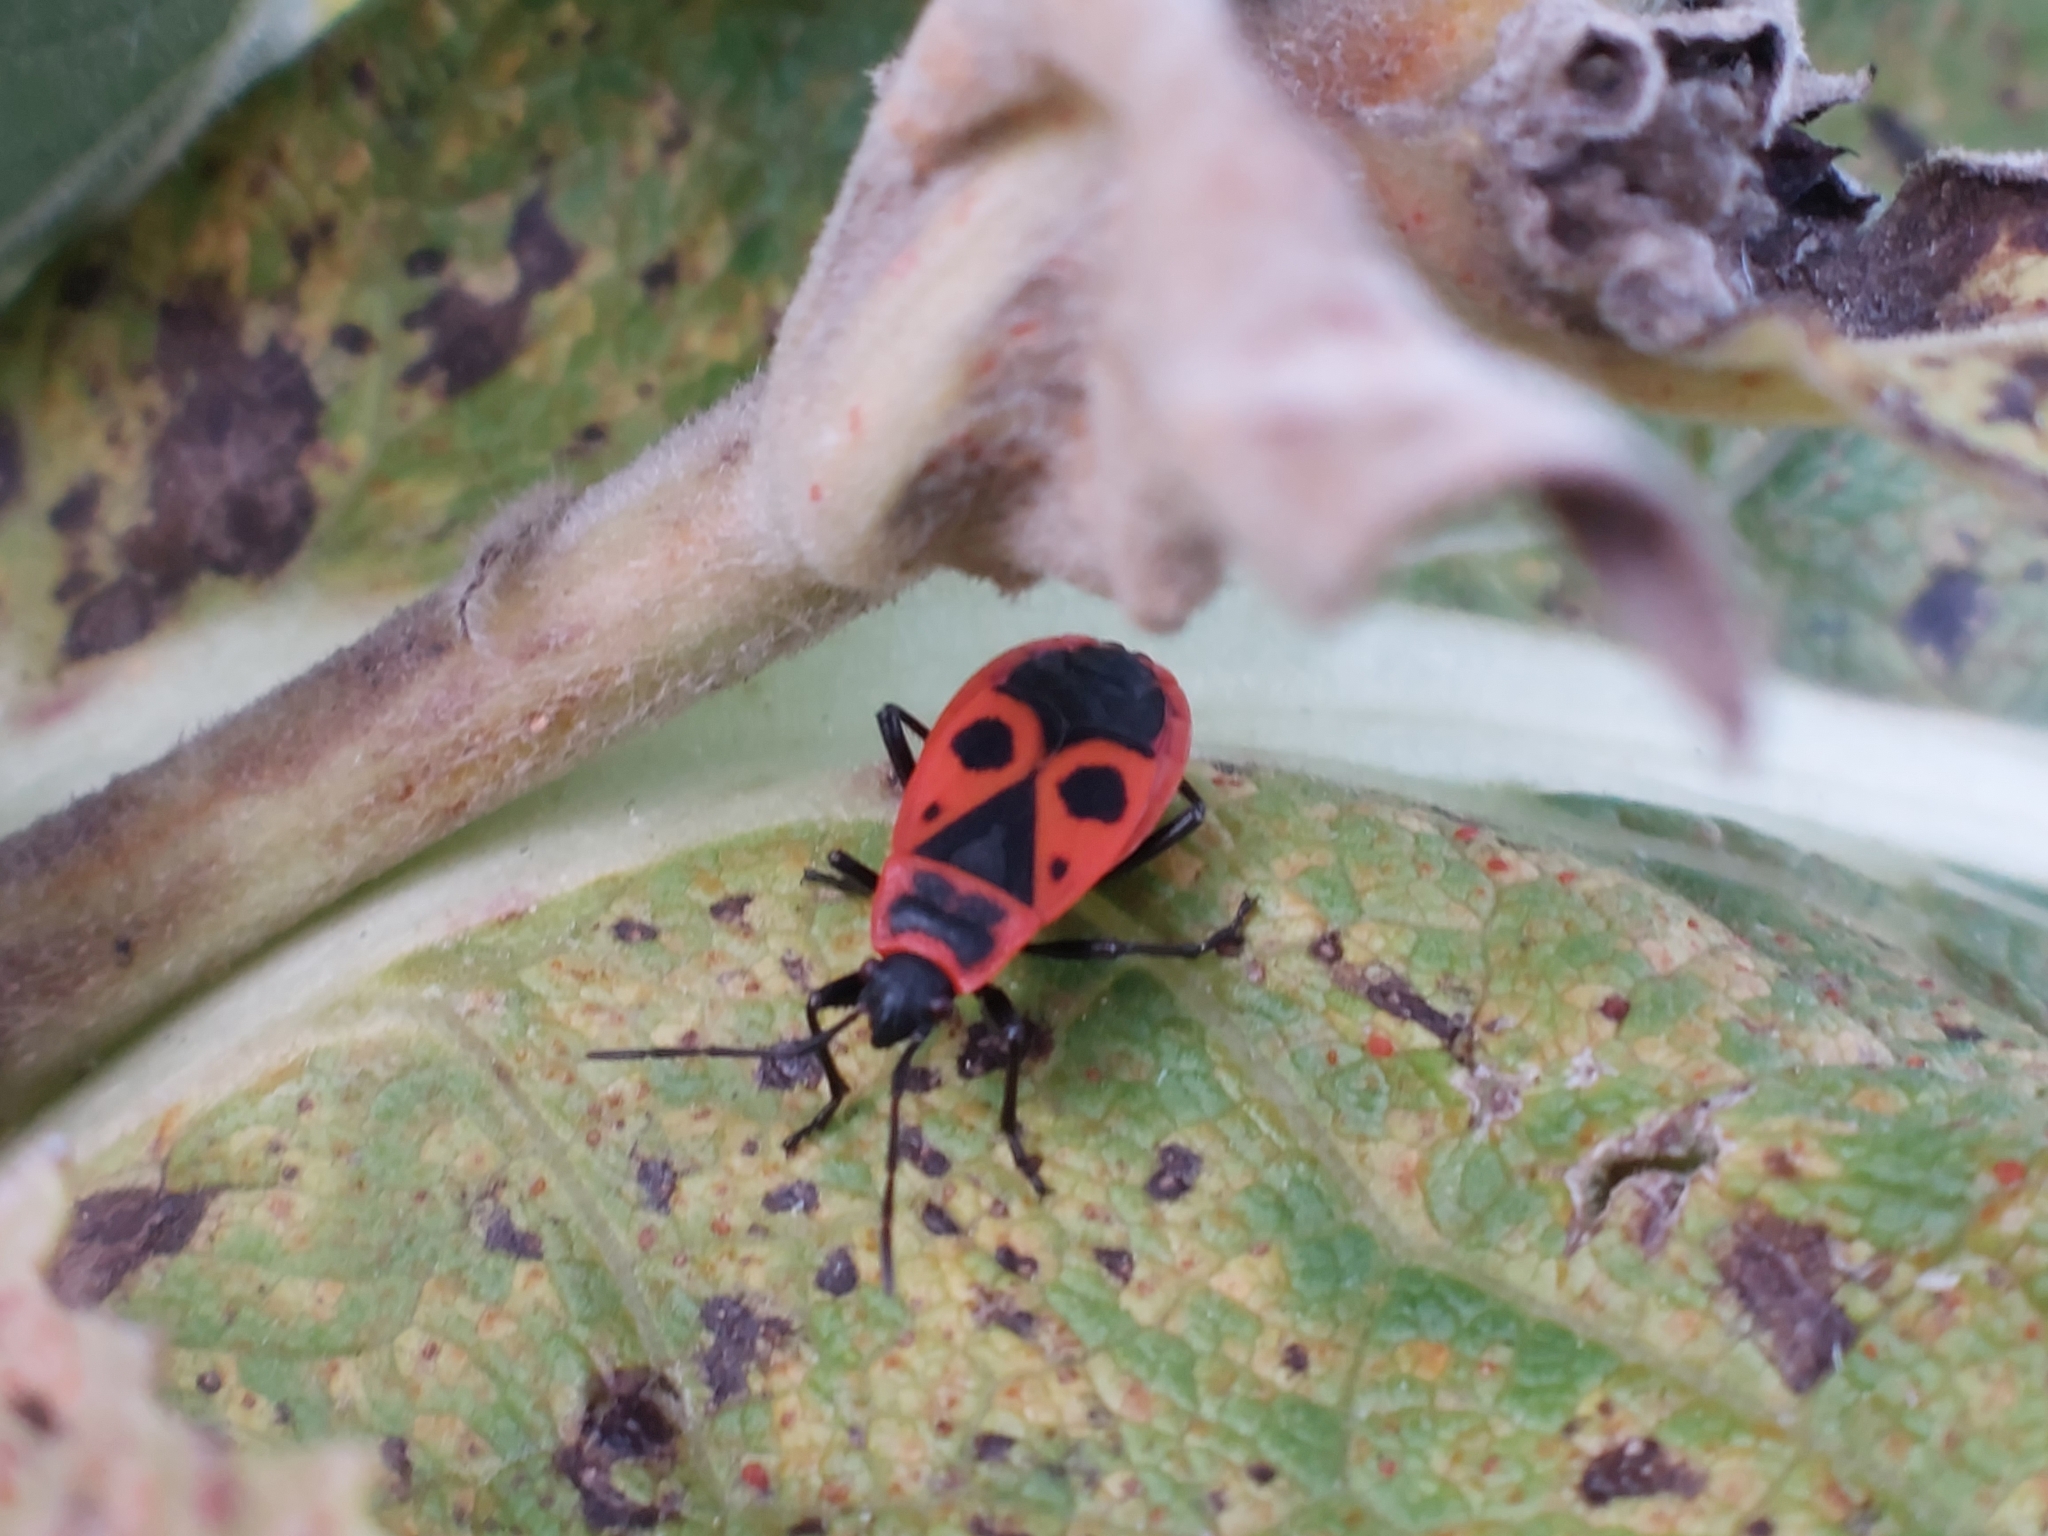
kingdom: Animalia
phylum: Arthropoda
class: Insecta
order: Hemiptera
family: Pyrrhocoridae
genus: Pyrrhocoris
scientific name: Pyrrhocoris apterus
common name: Firebug
